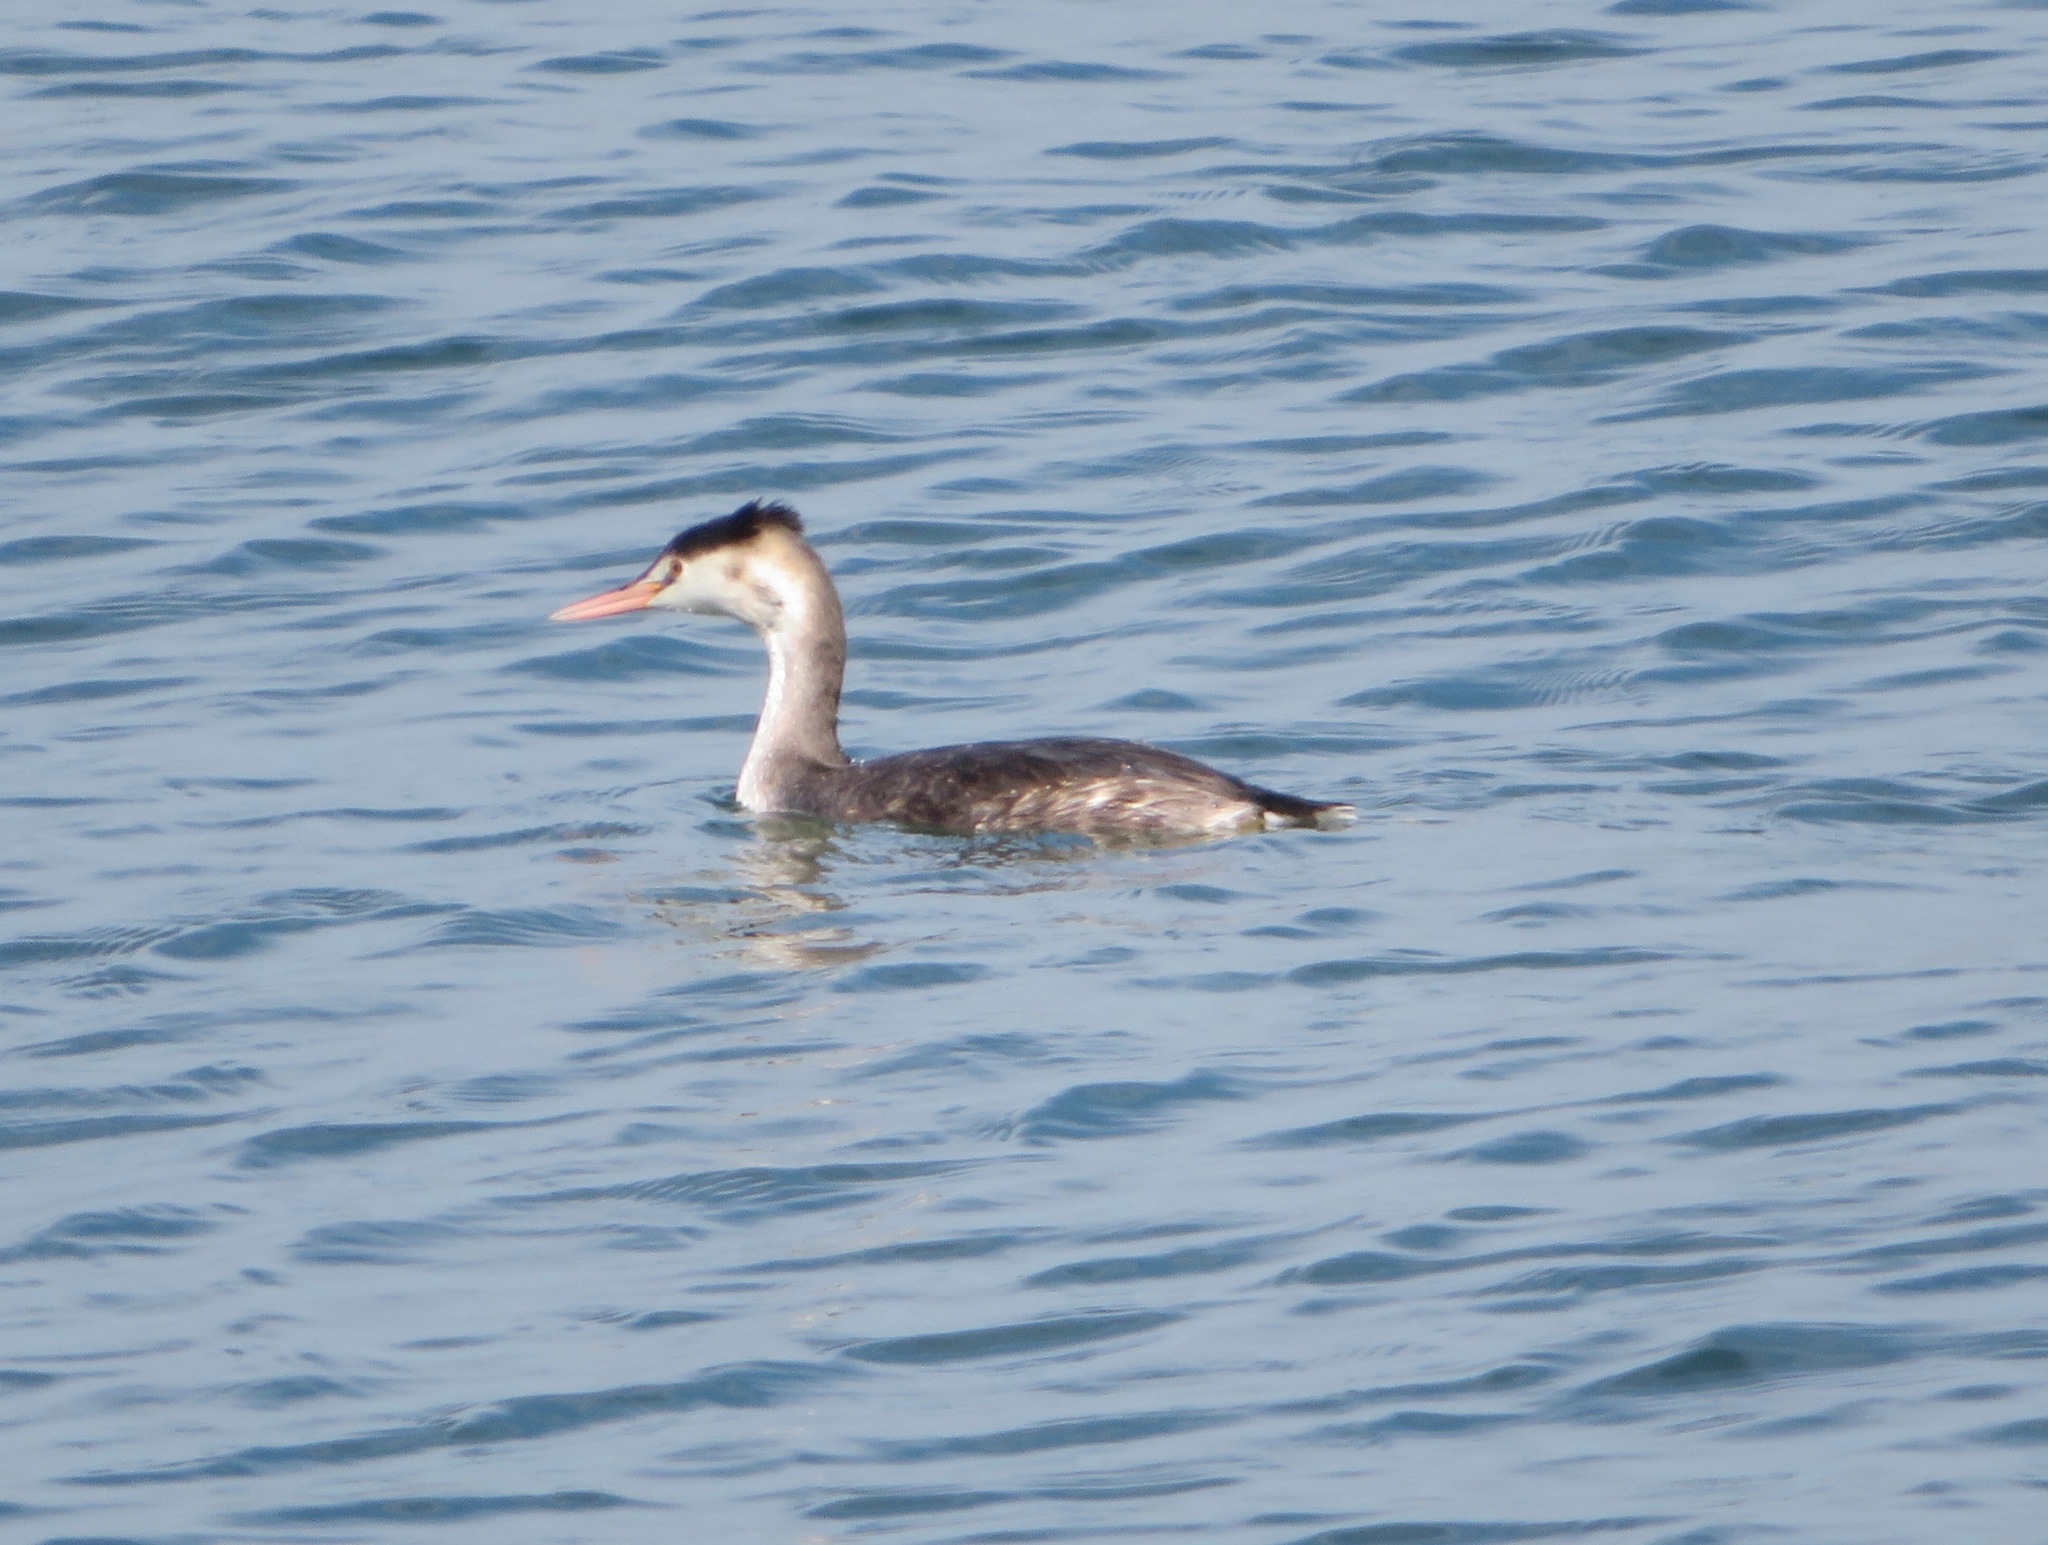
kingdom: Animalia
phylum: Chordata
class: Aves
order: Podicipediformes
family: Podicipedidae
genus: Podiceps
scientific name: Podiceps cristatus
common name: Great crested grebe
